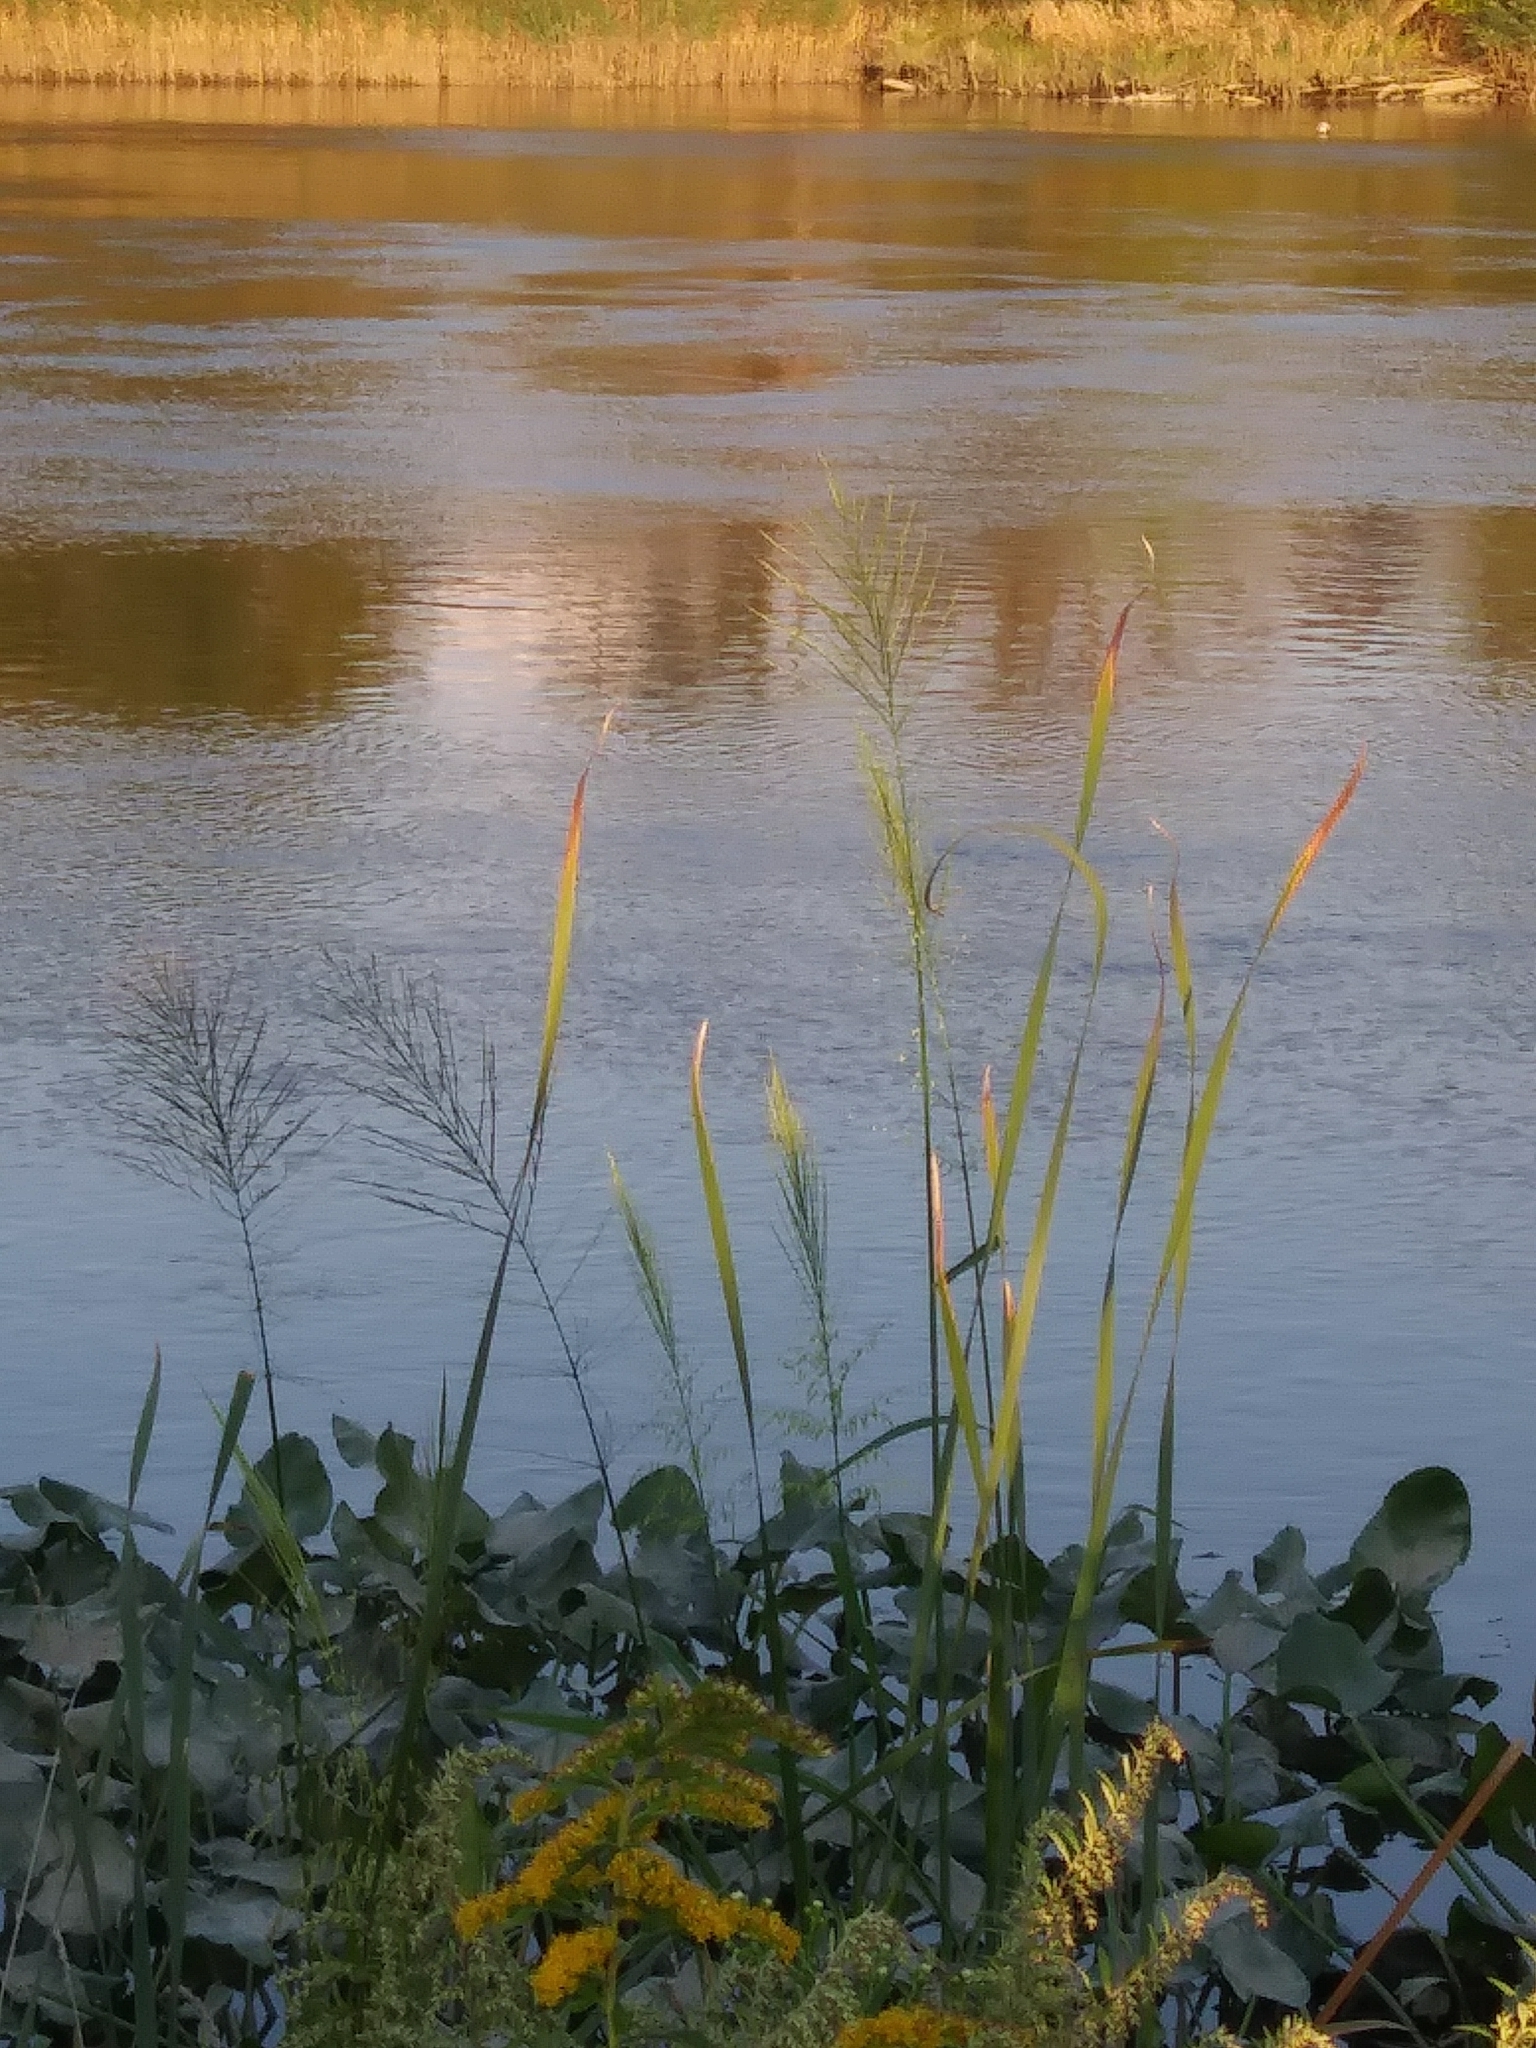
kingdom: Plantae
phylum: Tracheophyta
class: Liliopsida
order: Poales
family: Poaceae
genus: Zizania
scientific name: Zizania aquatica
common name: Annual wildrice
